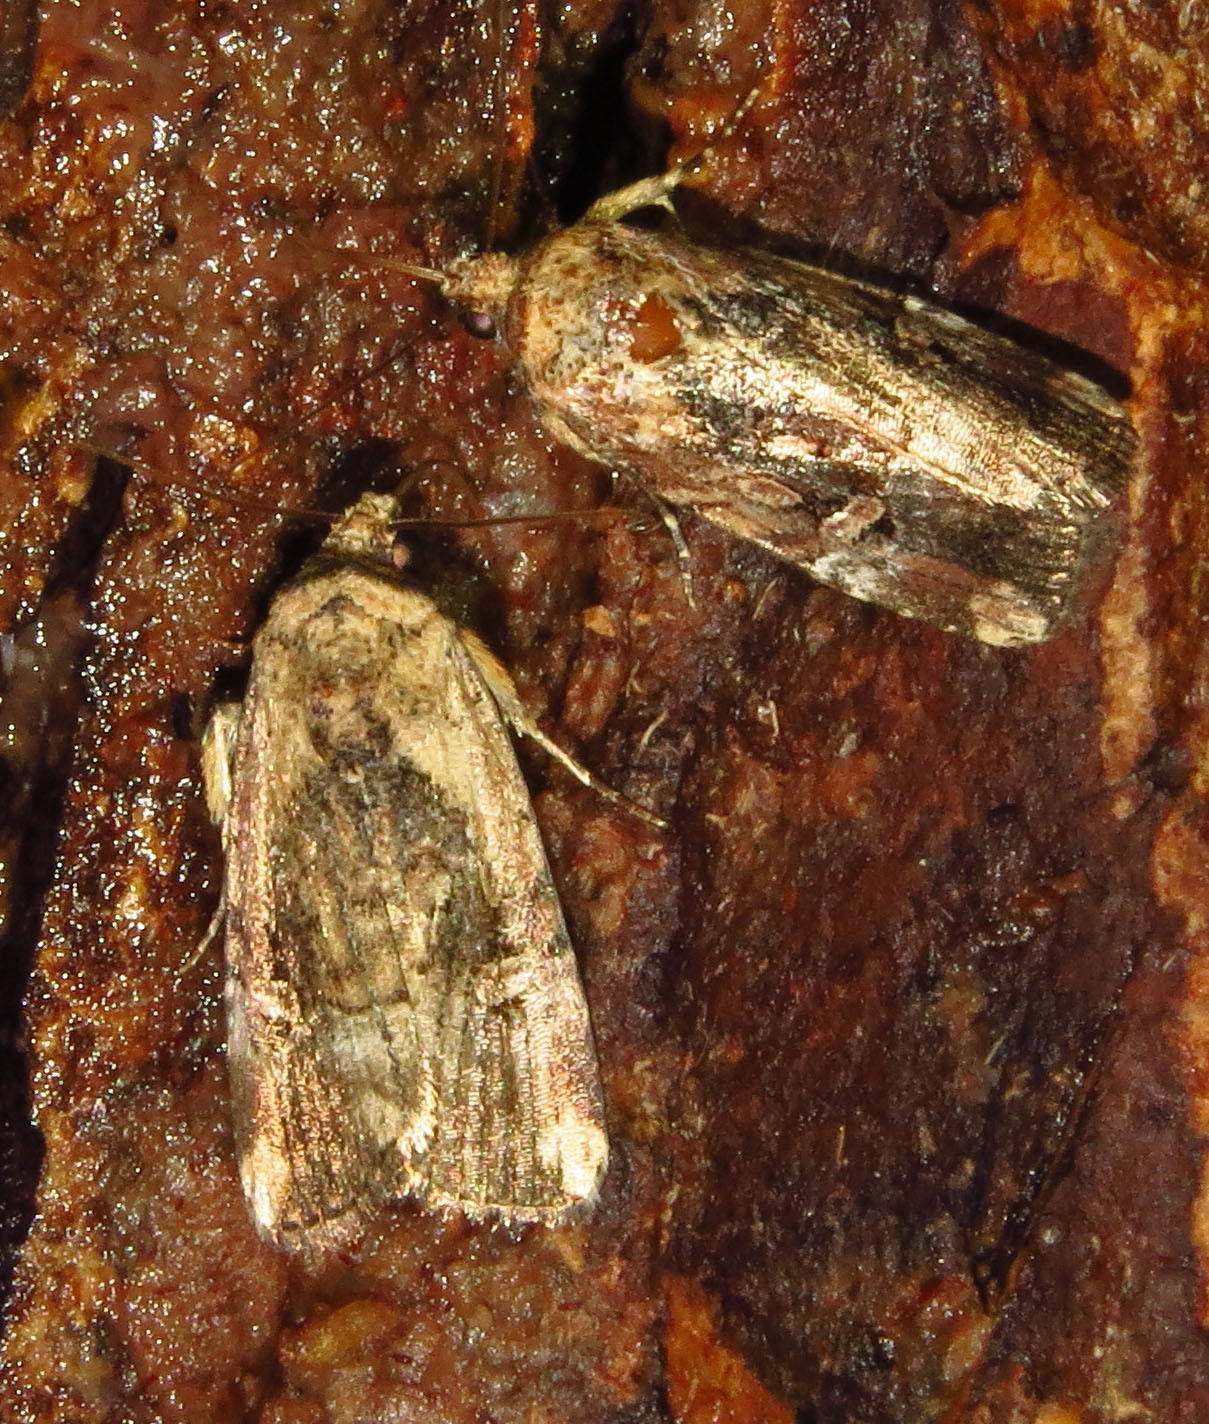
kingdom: Animalia
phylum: Arthropoda
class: Insecta
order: Lepidoptera
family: Noctuidae
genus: Elaphria
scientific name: Elaphria chalcedonia
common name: Chalcedony midget
